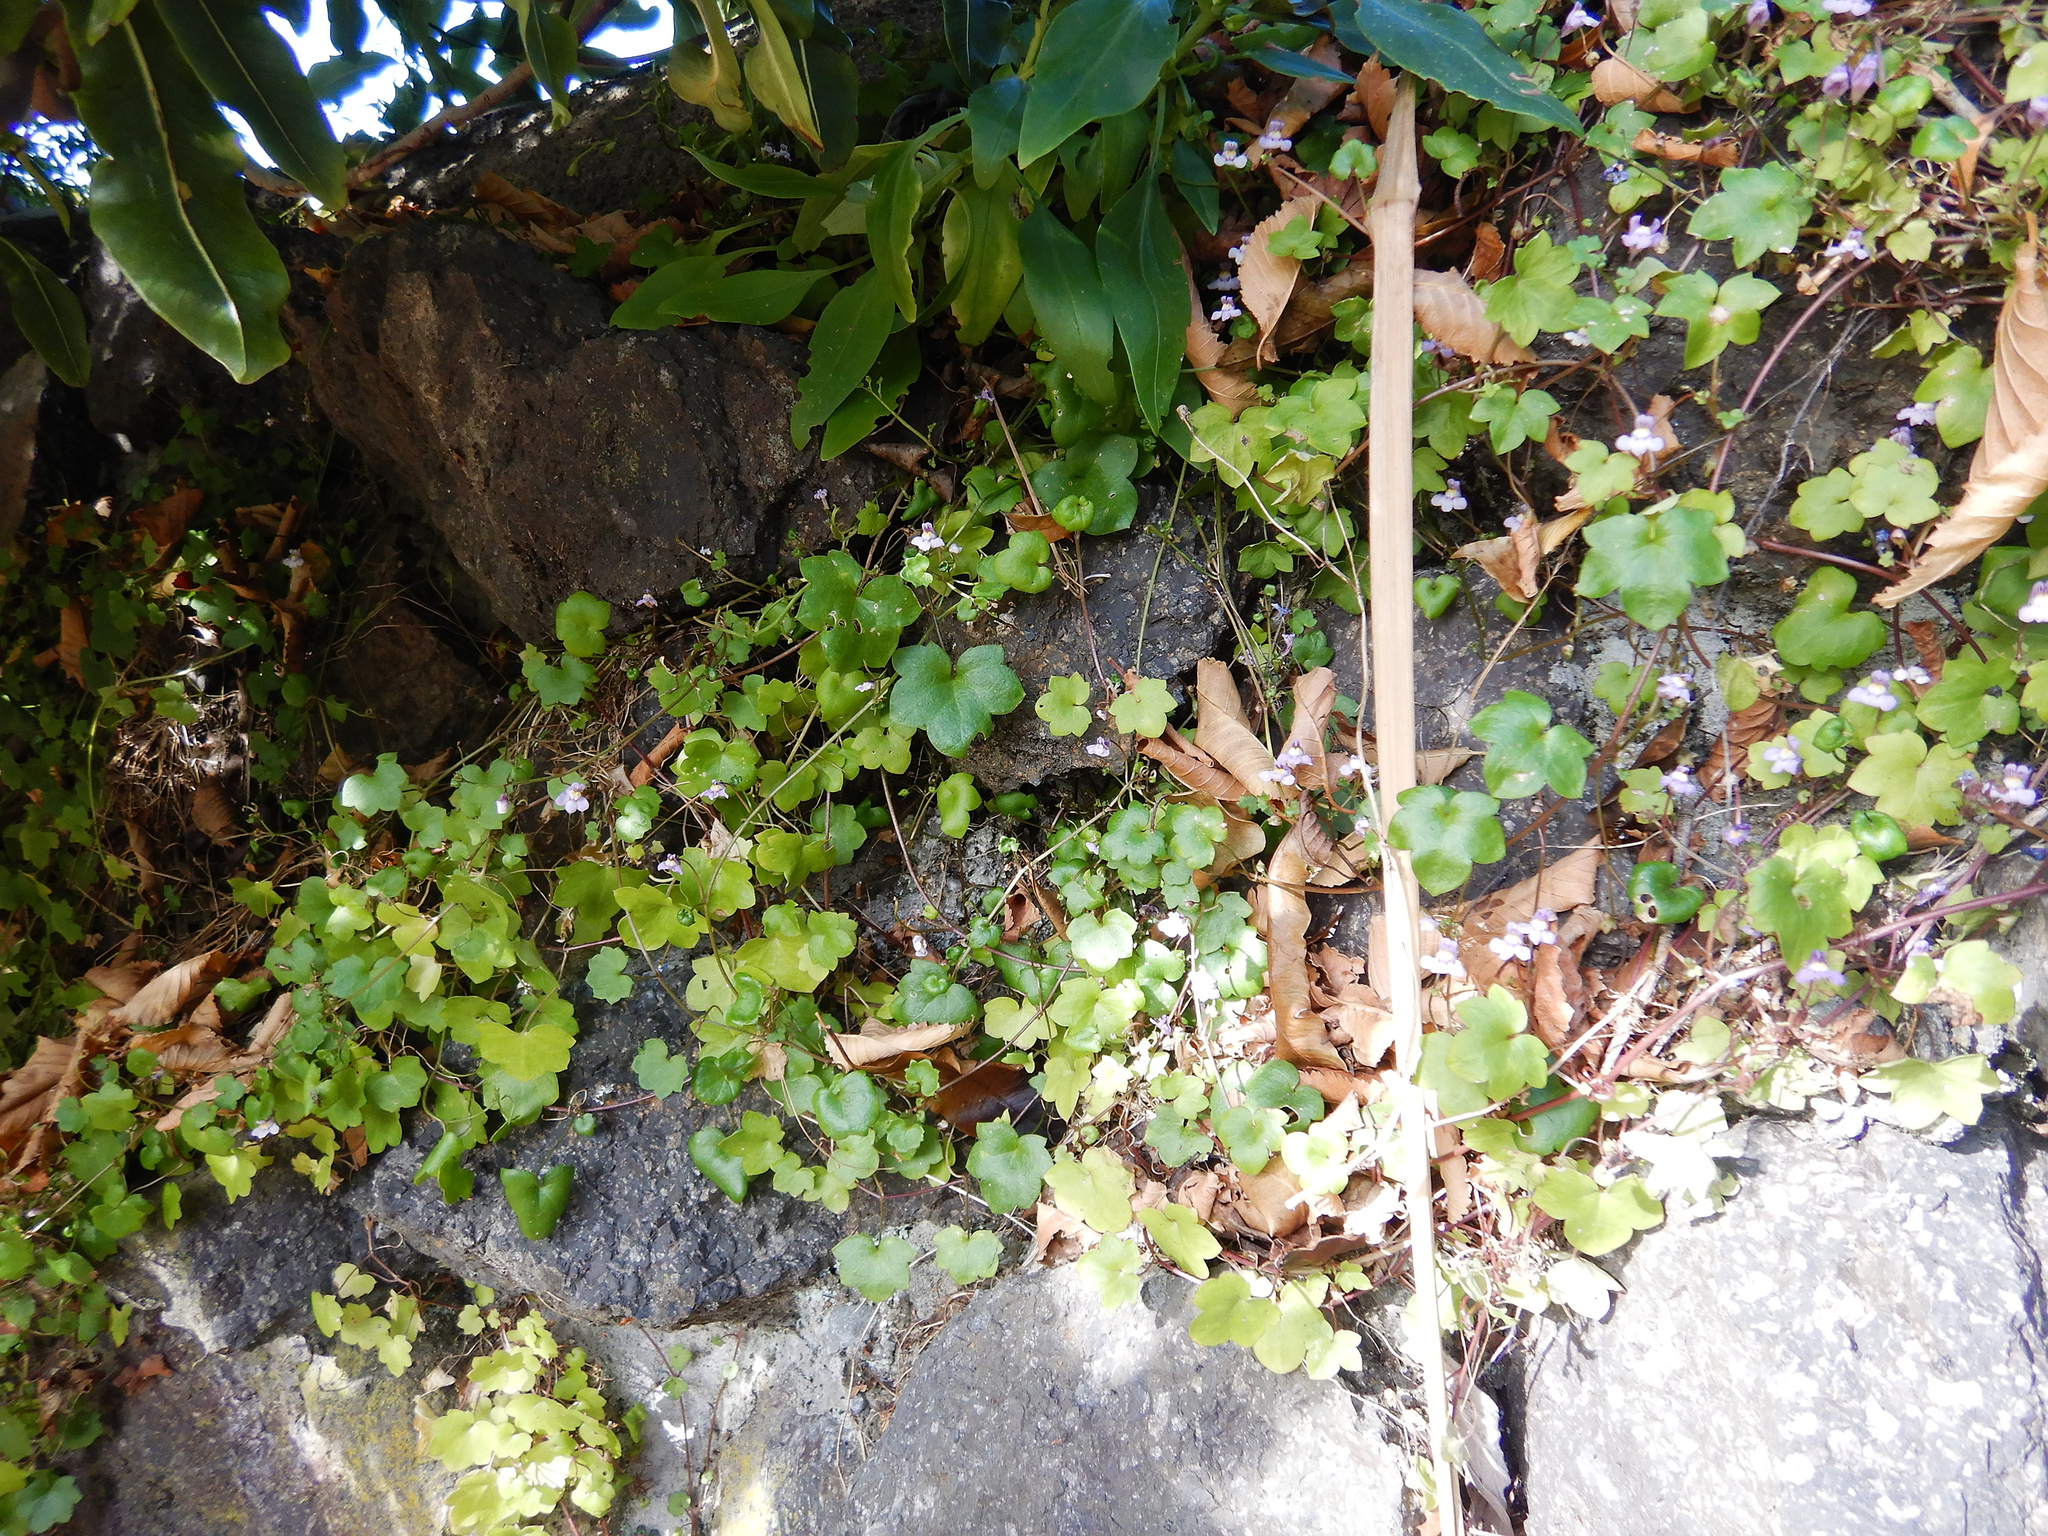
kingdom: Plantae
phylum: Tracheophyta
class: Magnoliopsida
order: Lamiales
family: Plantaginaceae
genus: Cymbalaria
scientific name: Cymbalaria muralis
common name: Ivy-leaved toadflax
